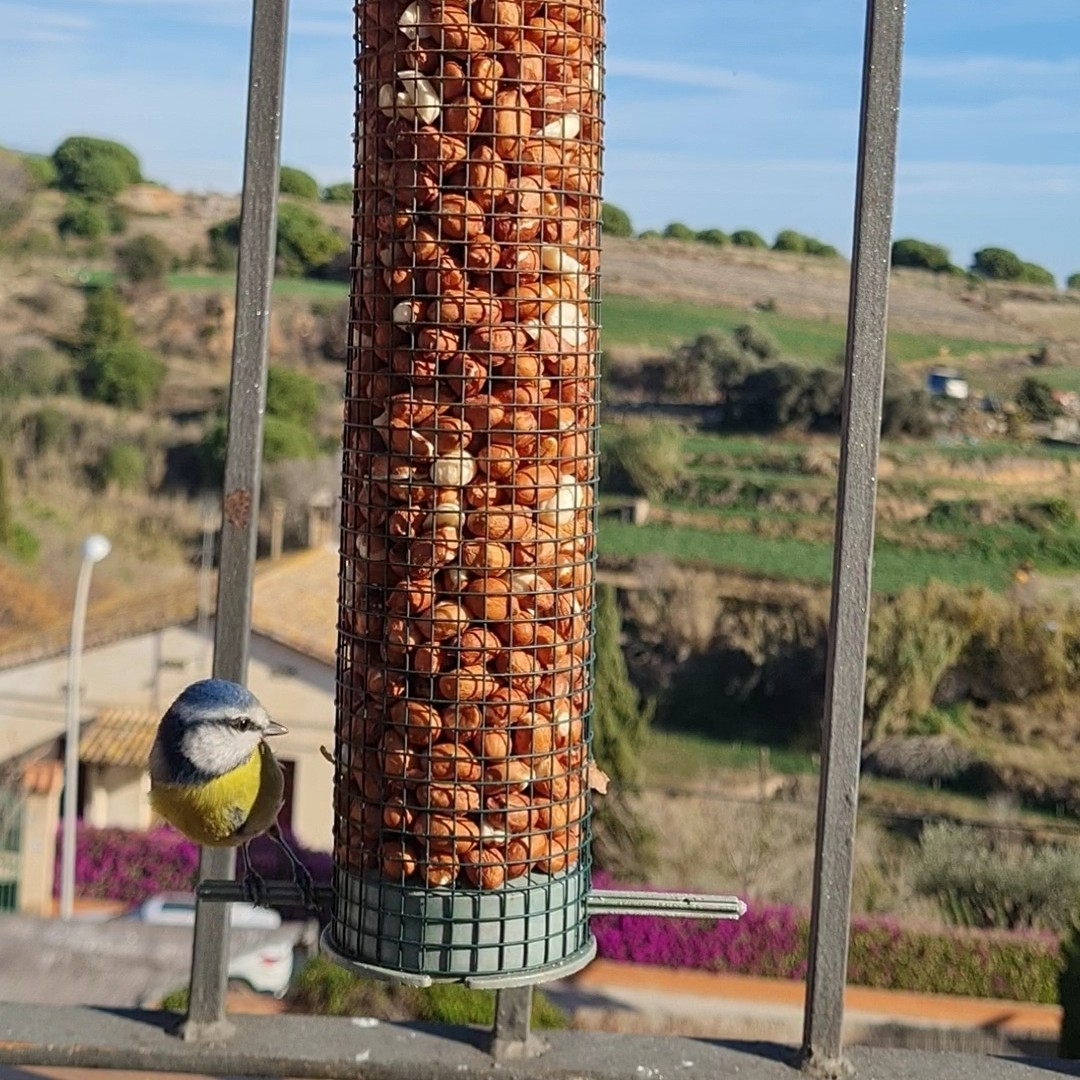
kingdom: Animalia
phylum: Chordata
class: Aves
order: Passeriformes
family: Paridae
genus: Cyanistes
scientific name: Cyanistes caeruleus
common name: Eurasian blue tit
